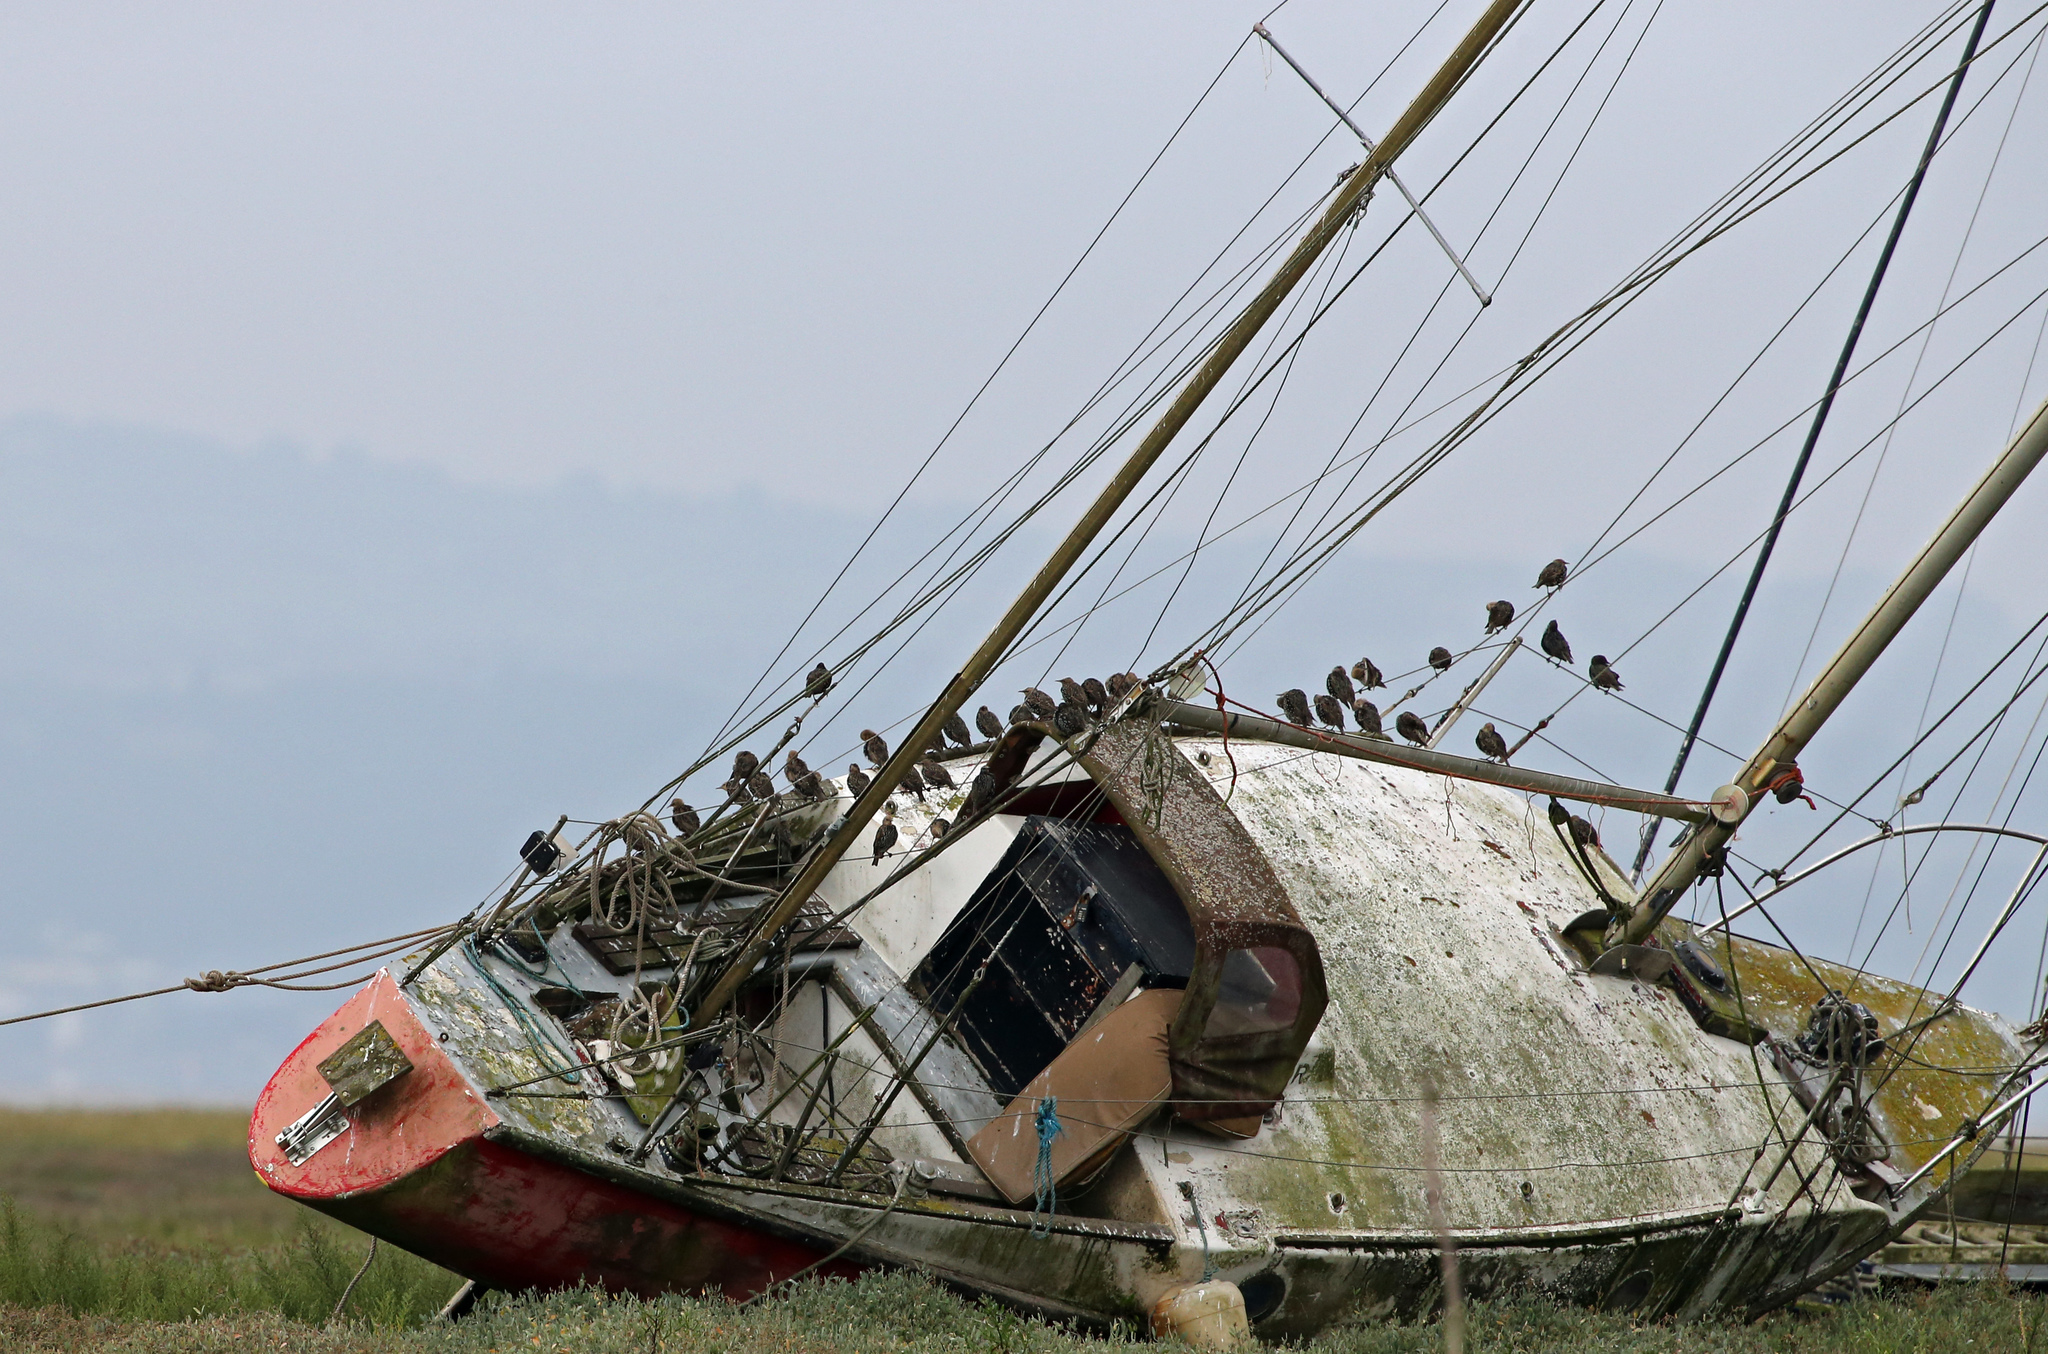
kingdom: Animalia
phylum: Chordata
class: Aves
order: Passeriformes
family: Sturnidae
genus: Sturnus
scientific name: Sturnus vulgaris
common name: Common starling
